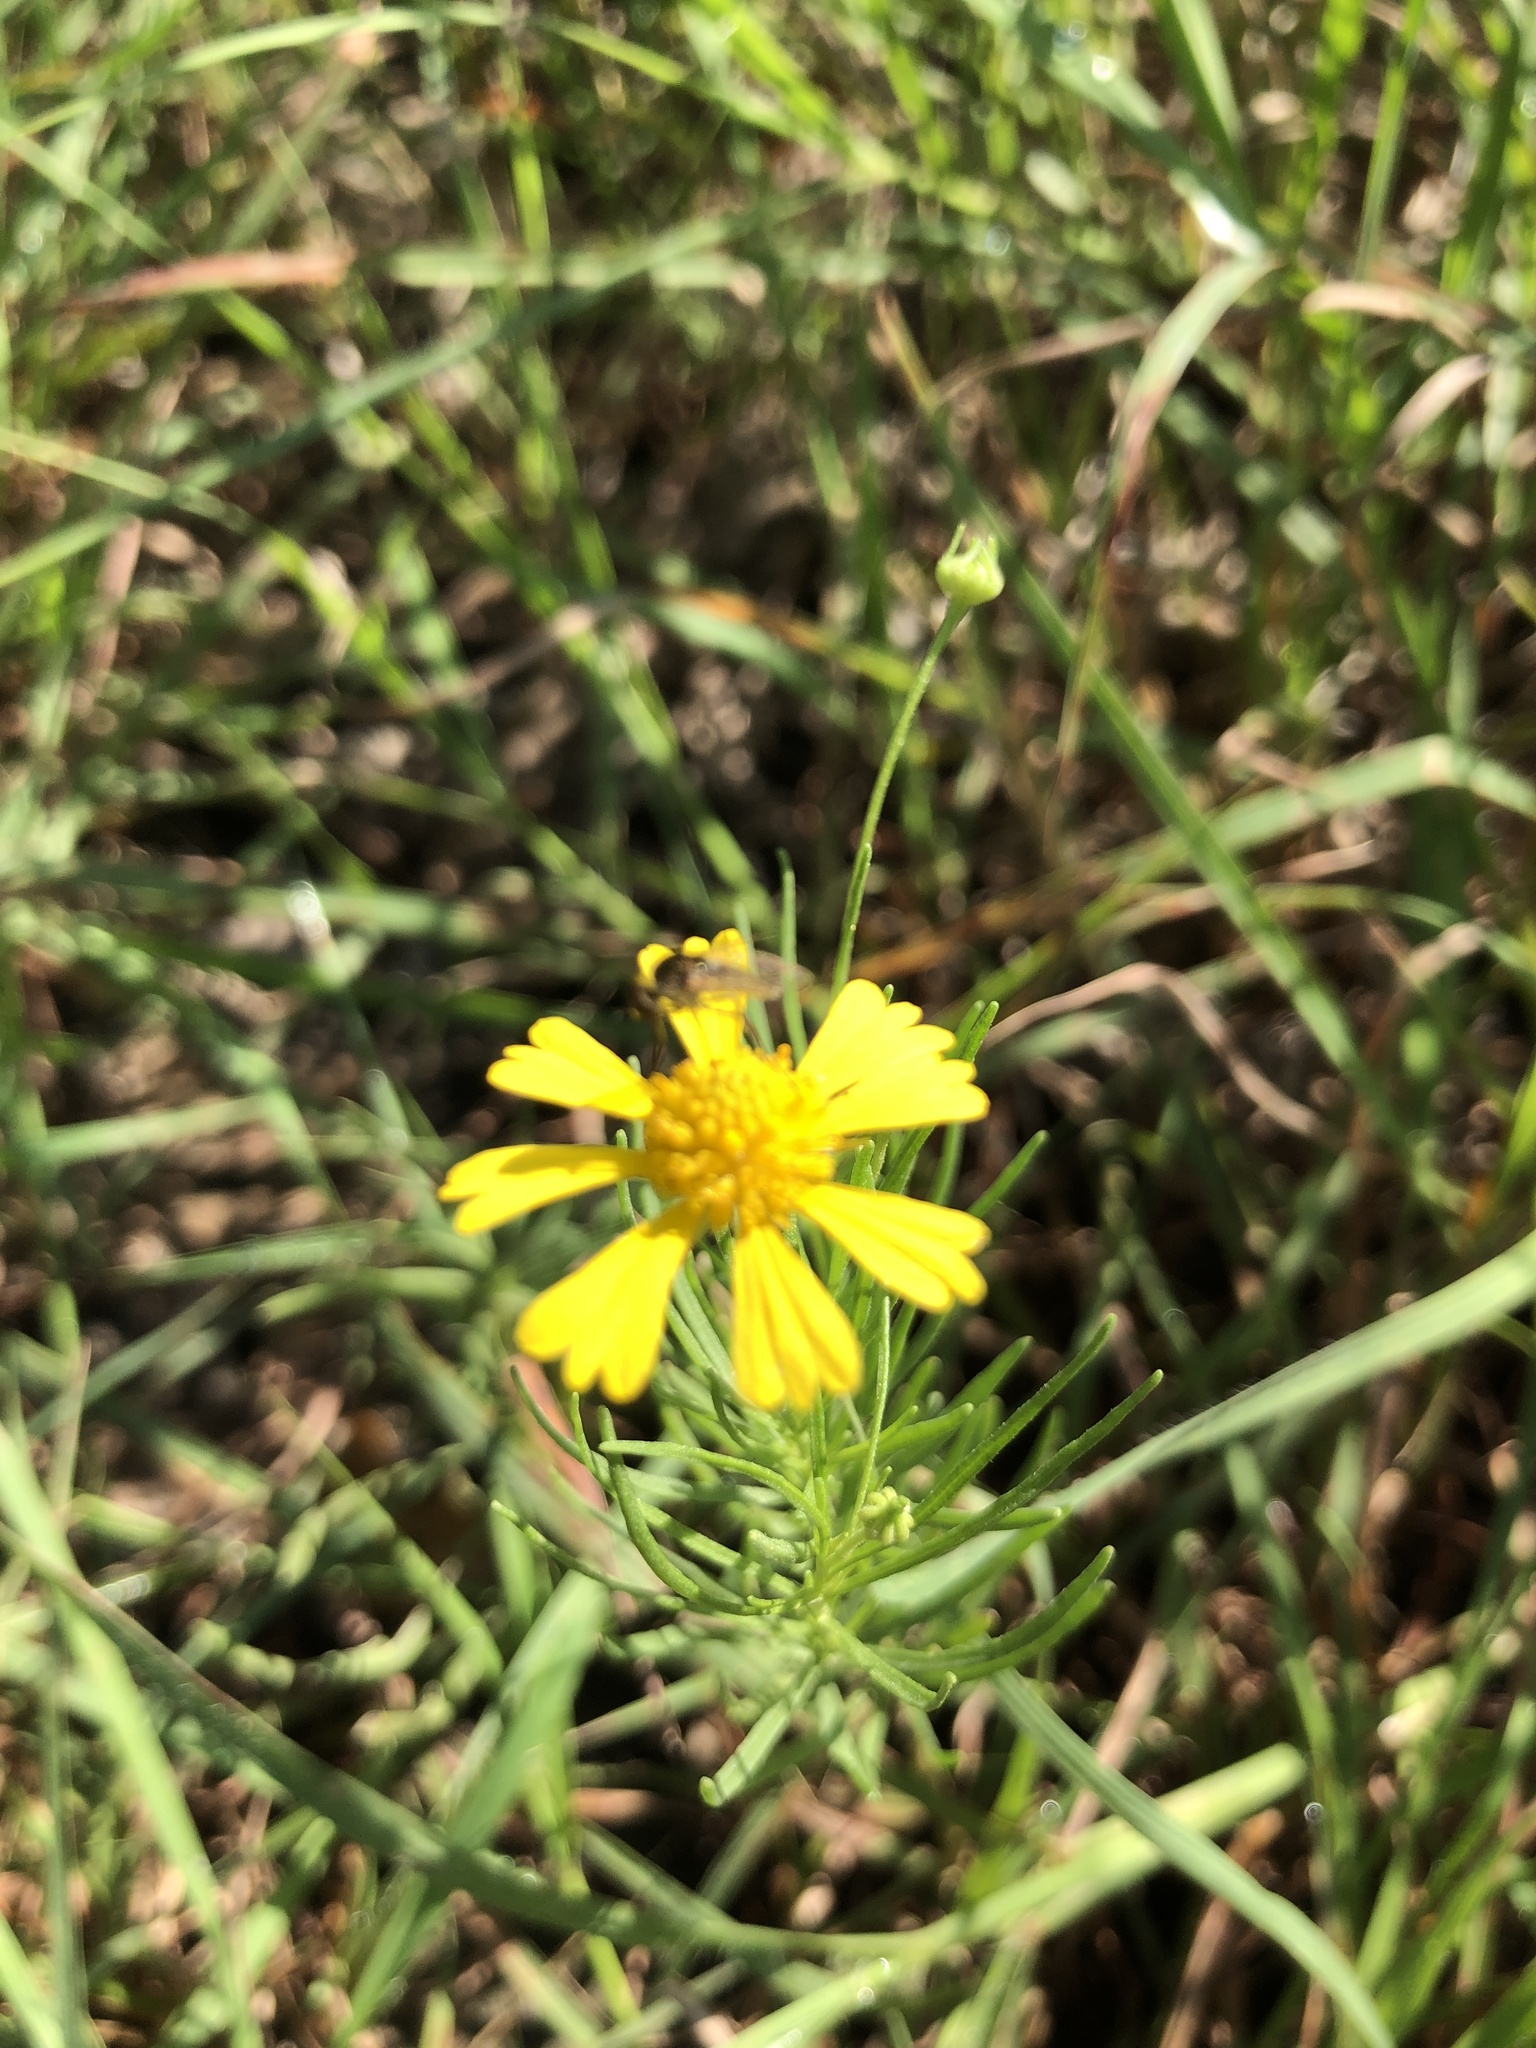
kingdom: Plantae
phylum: Tracheophyta
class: Magnoliopsida
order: Asterales
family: Asteraceae
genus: Helenium
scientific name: Helenium amarum
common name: Bitter sneezeweed
